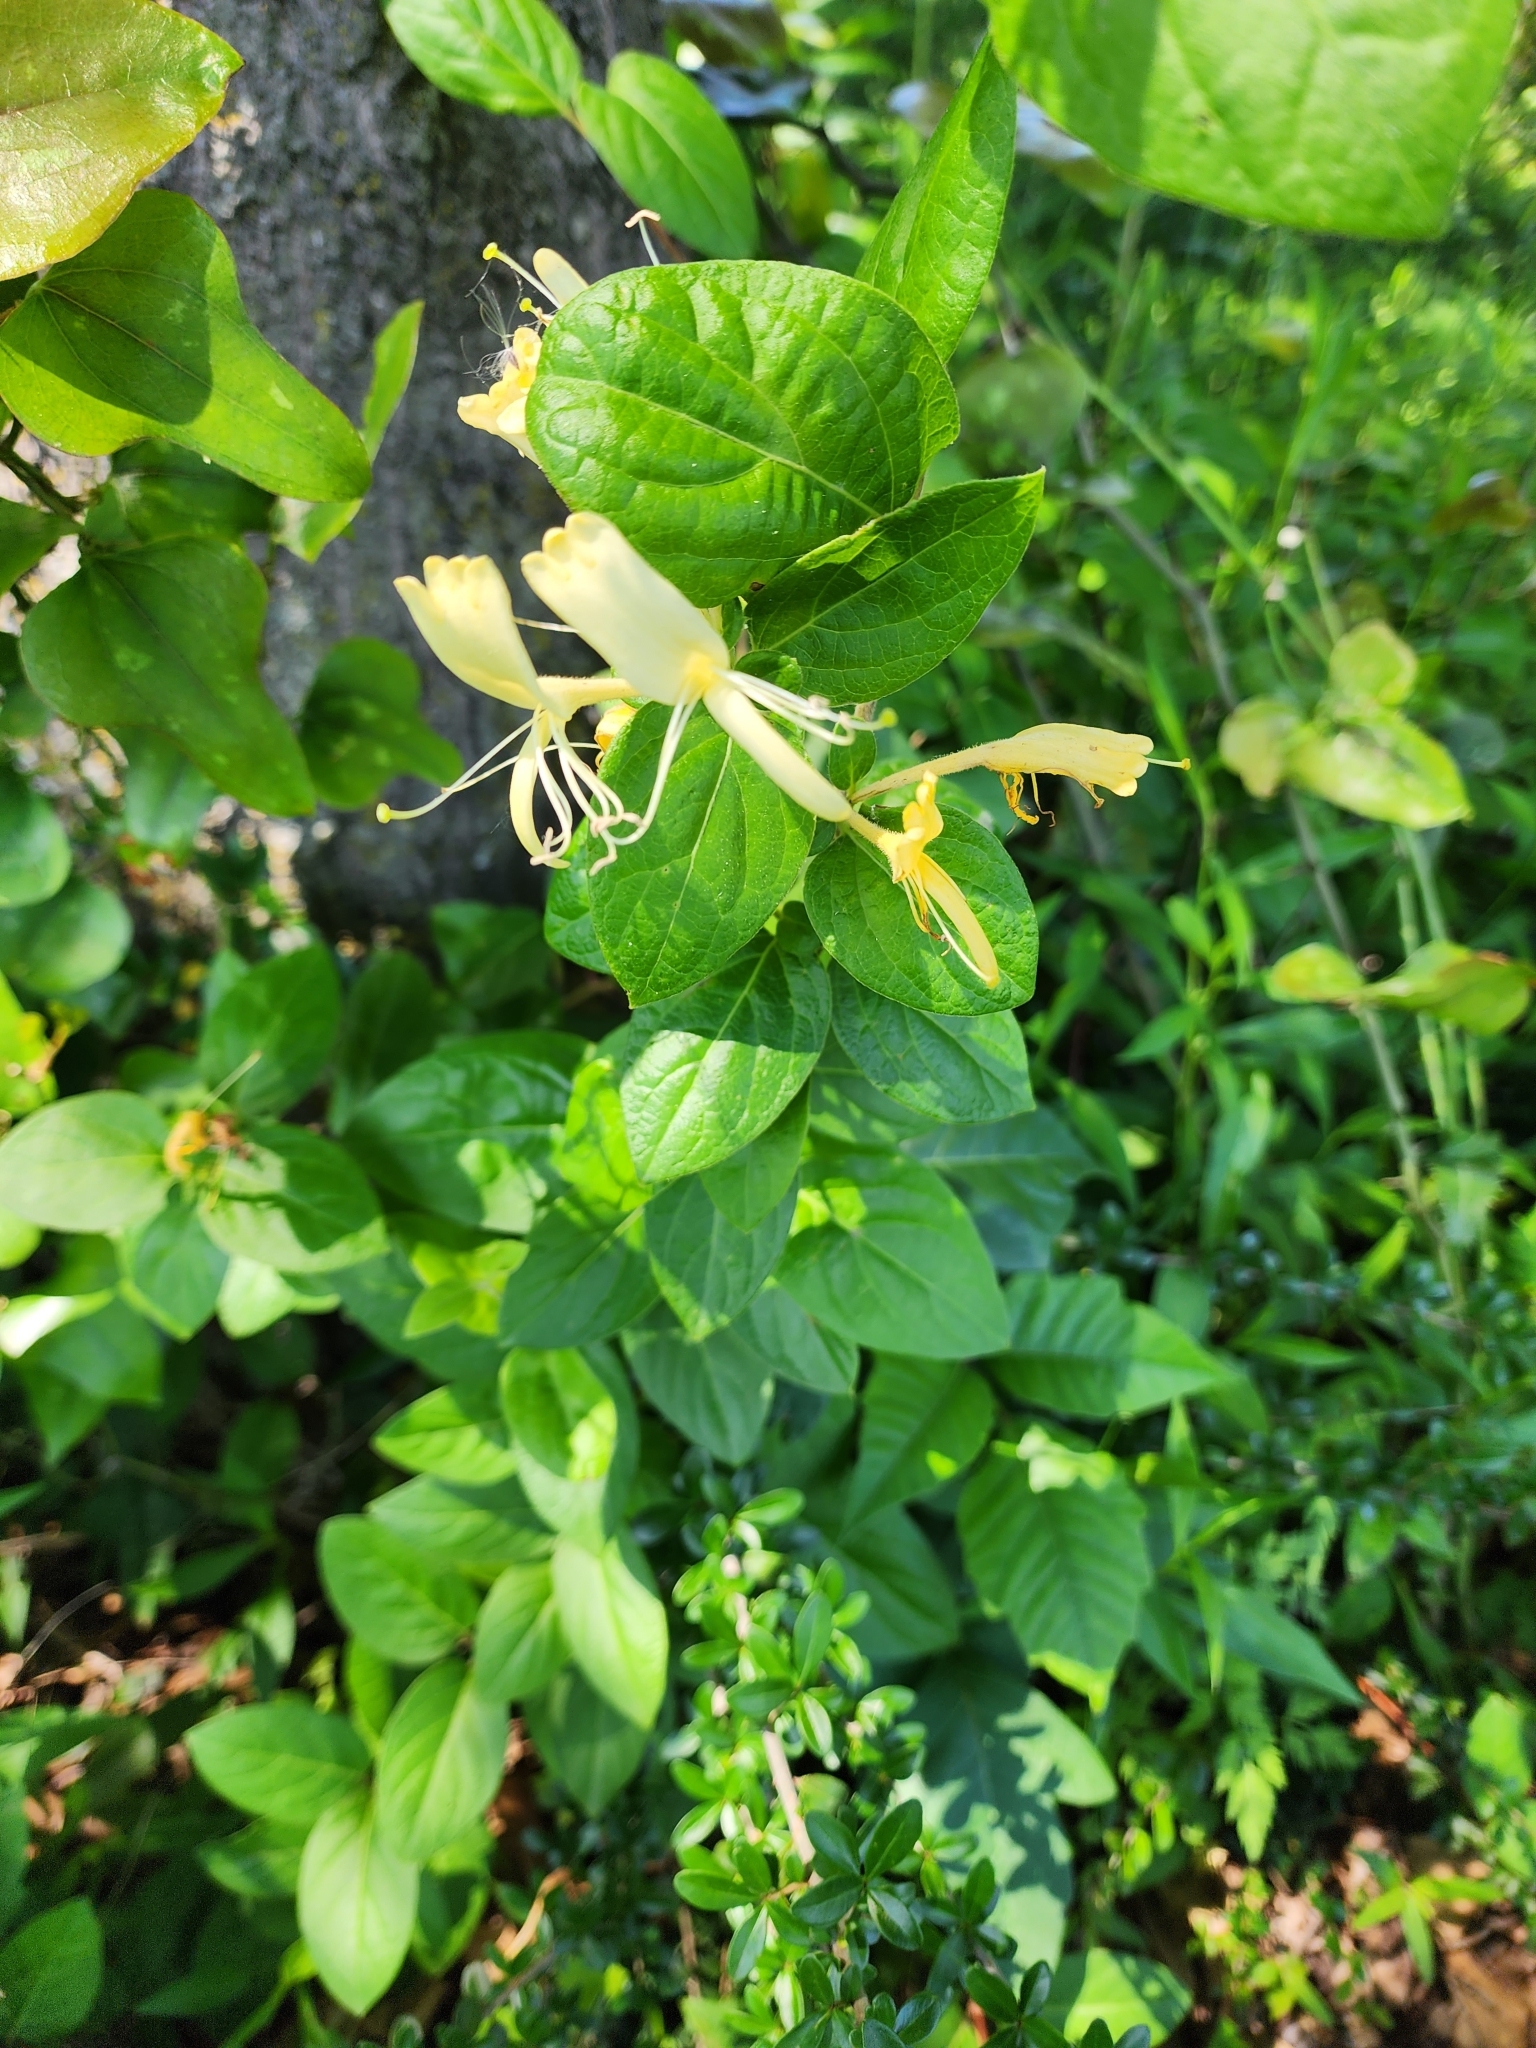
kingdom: Plantae
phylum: Tracheophyta
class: Magnoliopsida
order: Dipsacales
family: Caprifoliaceae
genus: Lonicera
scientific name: Lonicera japonica
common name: Japanese honeysuckle
